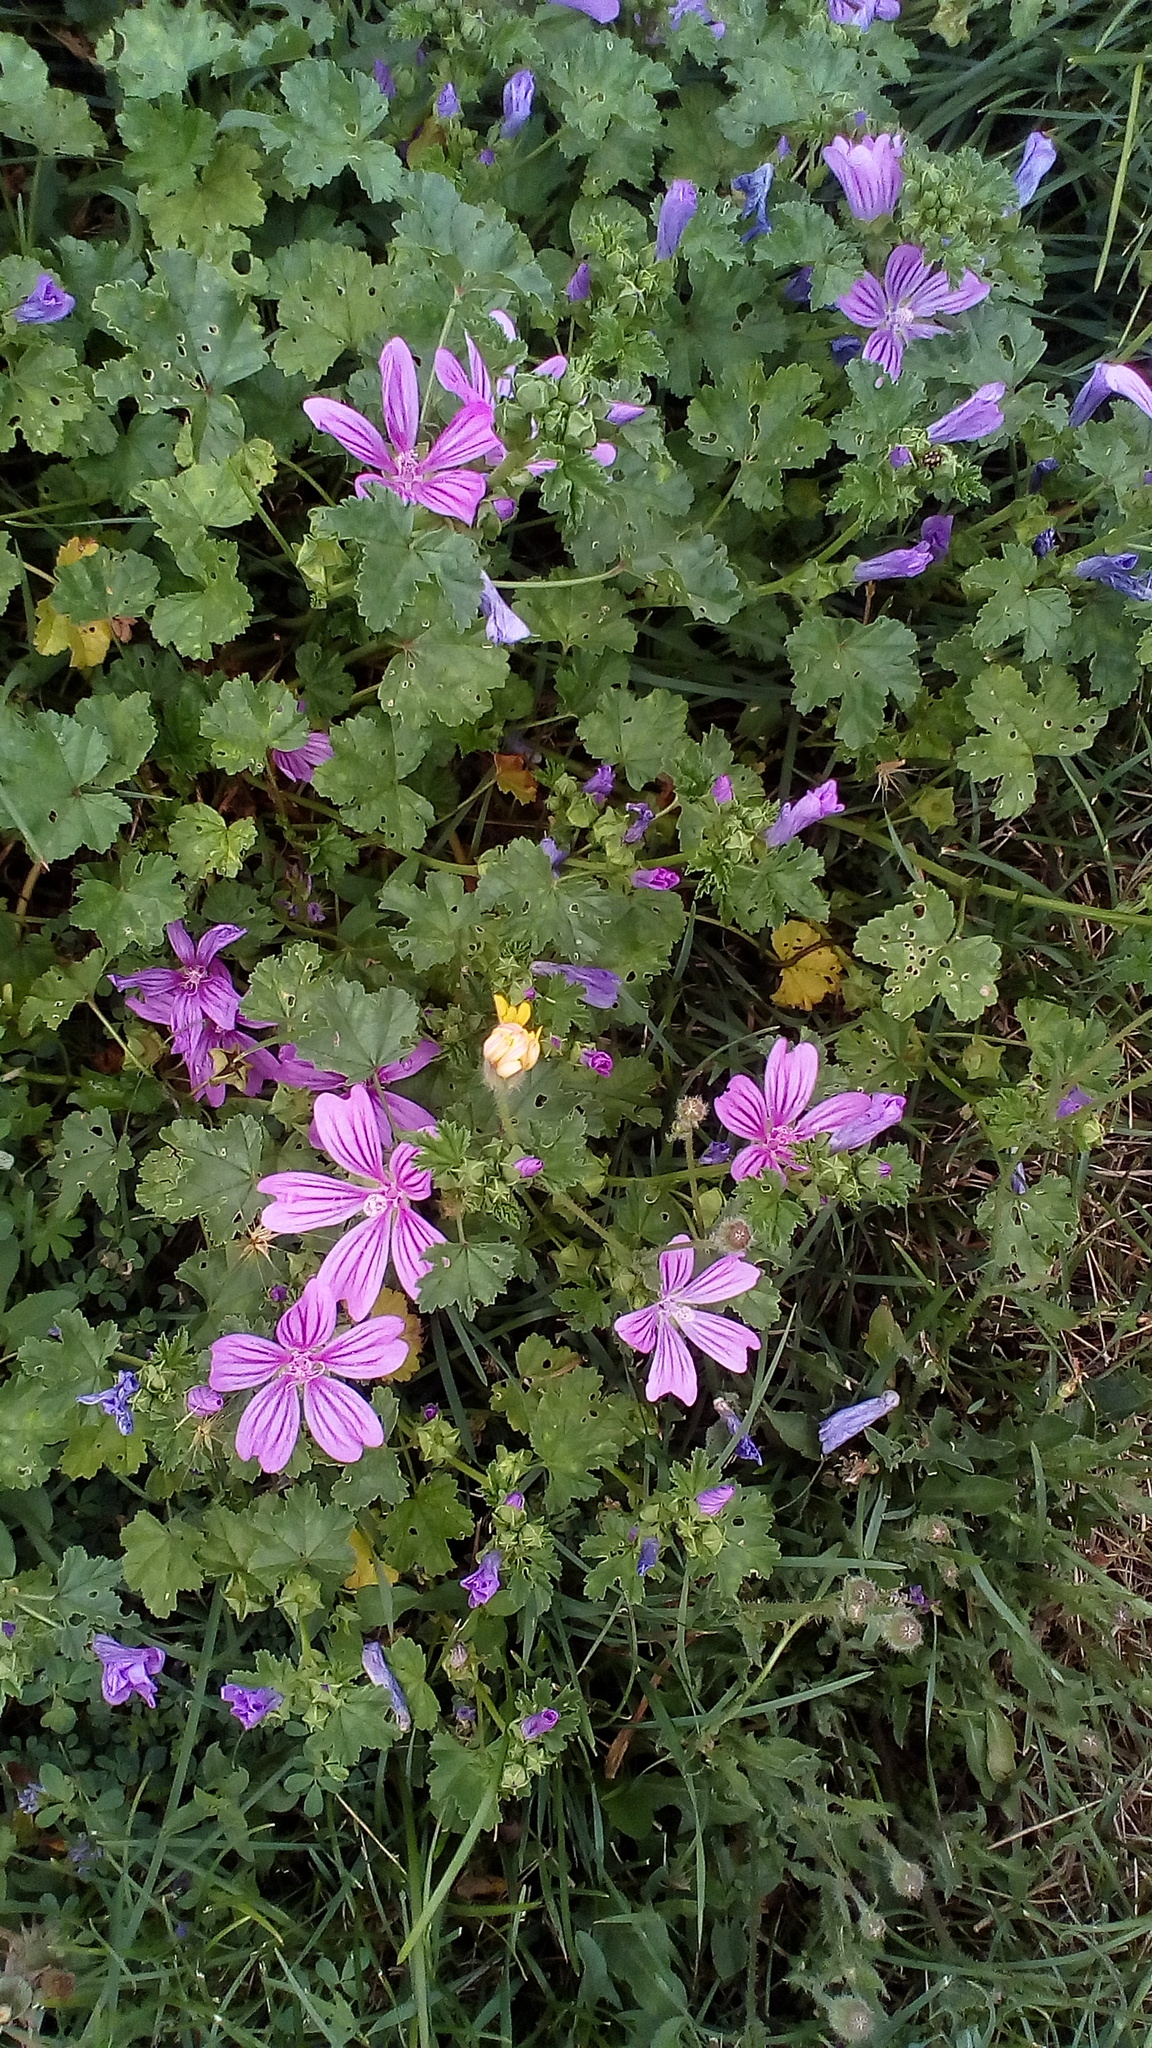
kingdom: Plantae
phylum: Tracheophyta
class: Magnoliopsida
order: Malvales
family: Malvaceae
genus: Malva
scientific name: Malva sylvestris
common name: Common mallow
